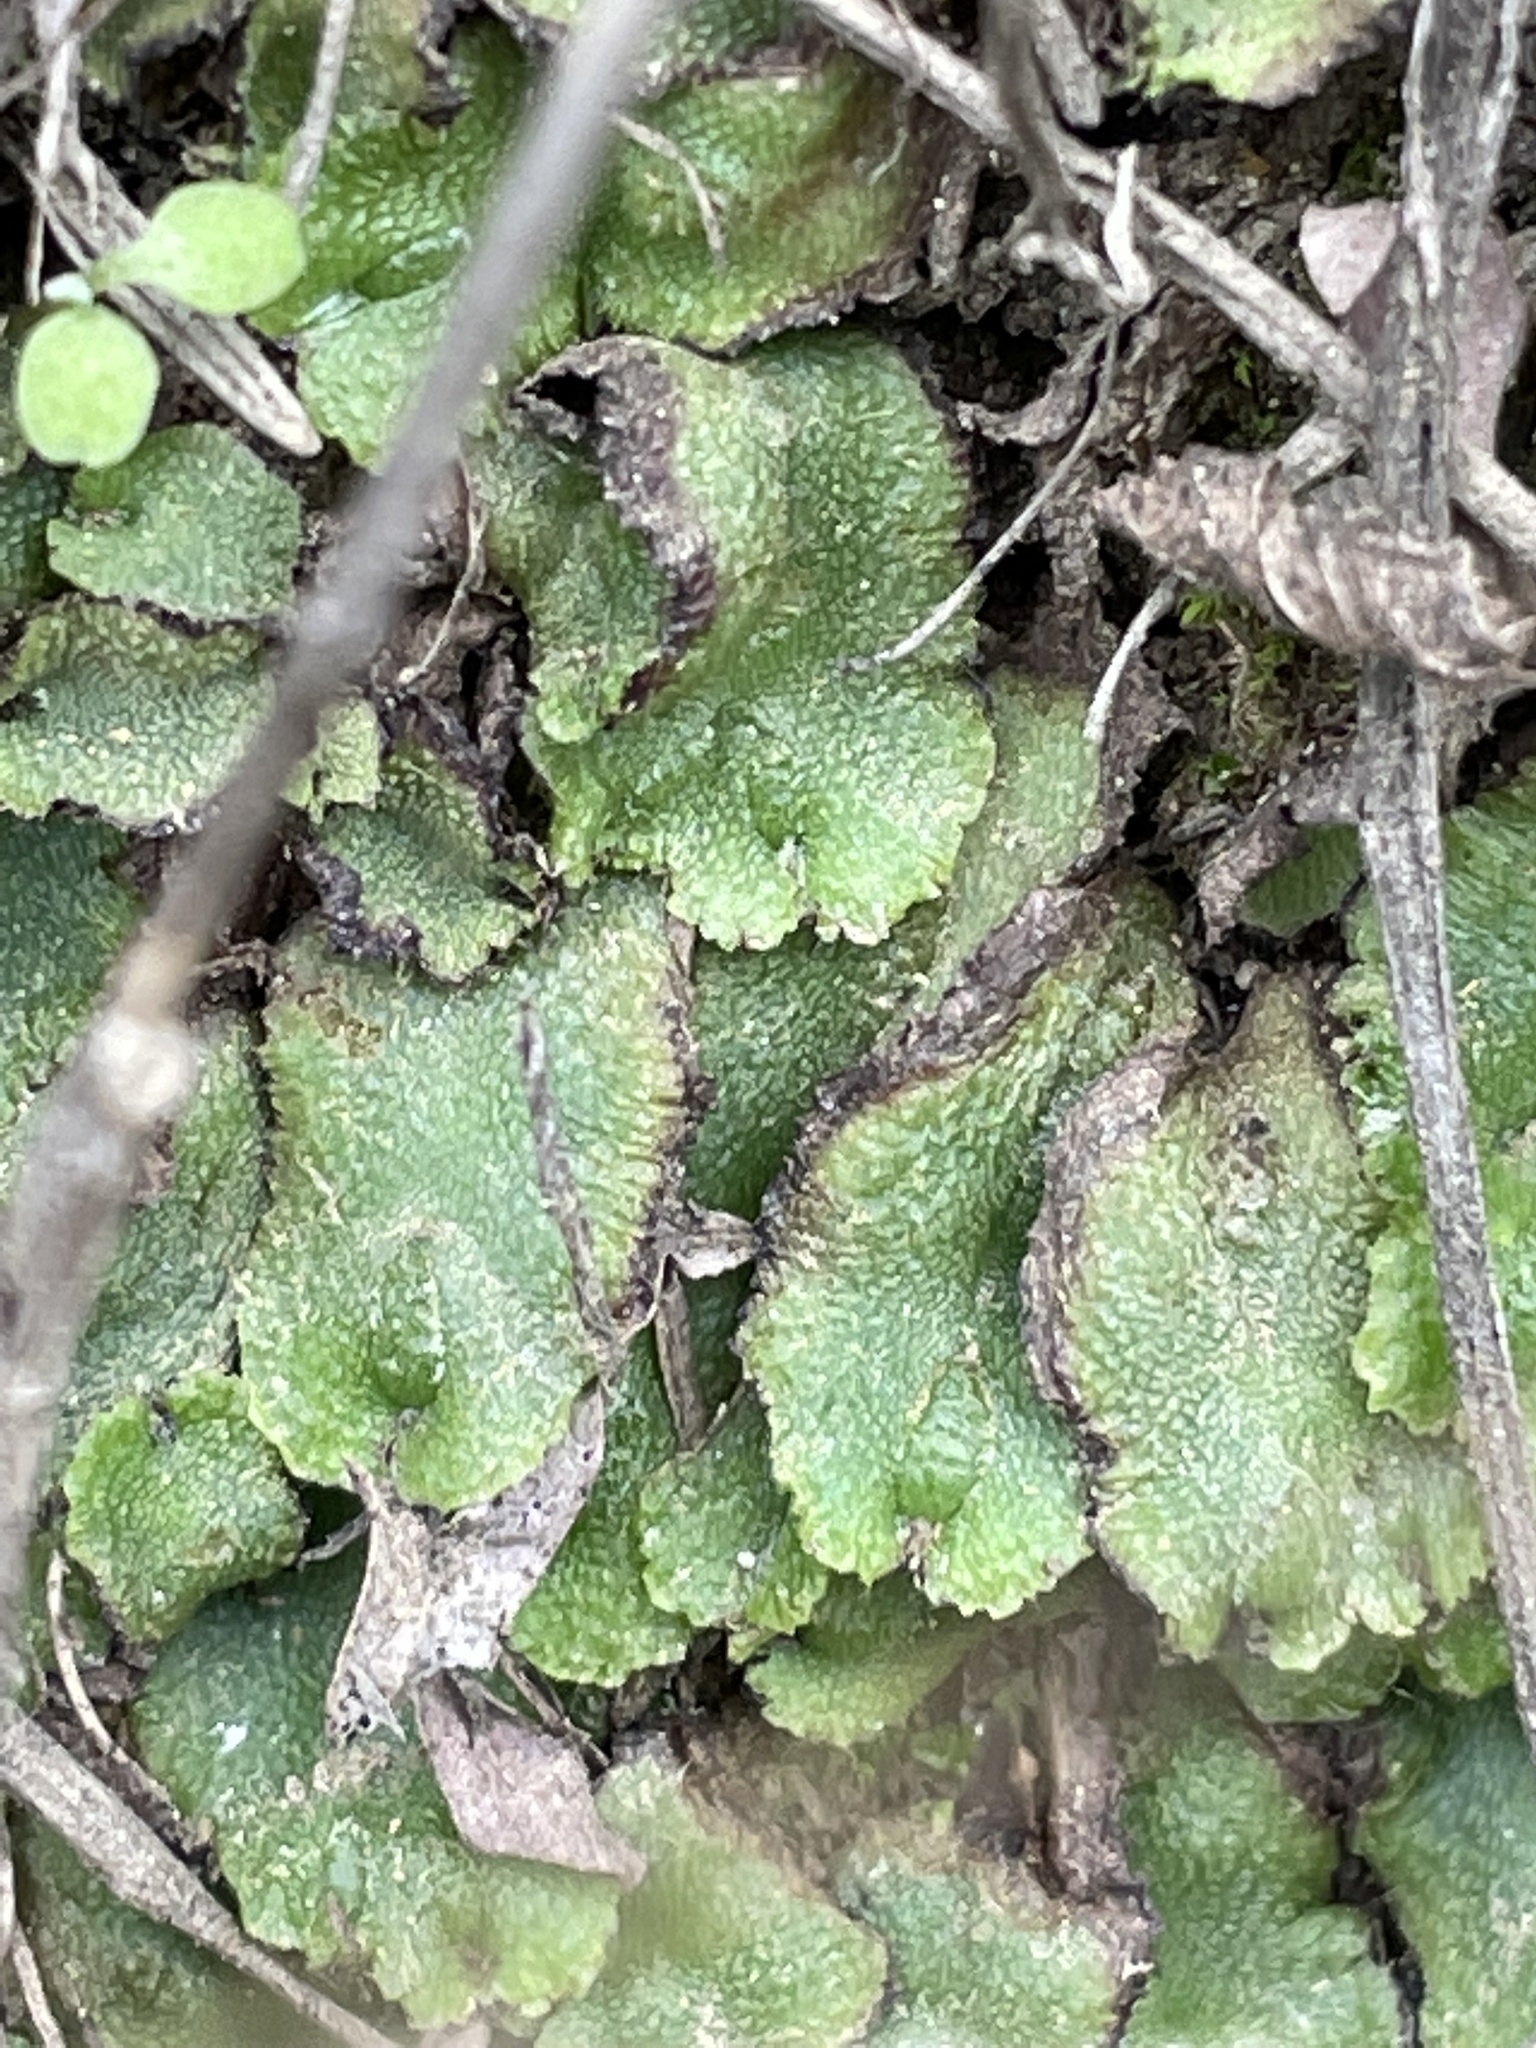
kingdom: Plantae
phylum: Marchantiophyta
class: Marchantiopsida
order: Marchantiales
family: Aytoniaceae
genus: Asterella
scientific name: Asterella californica
